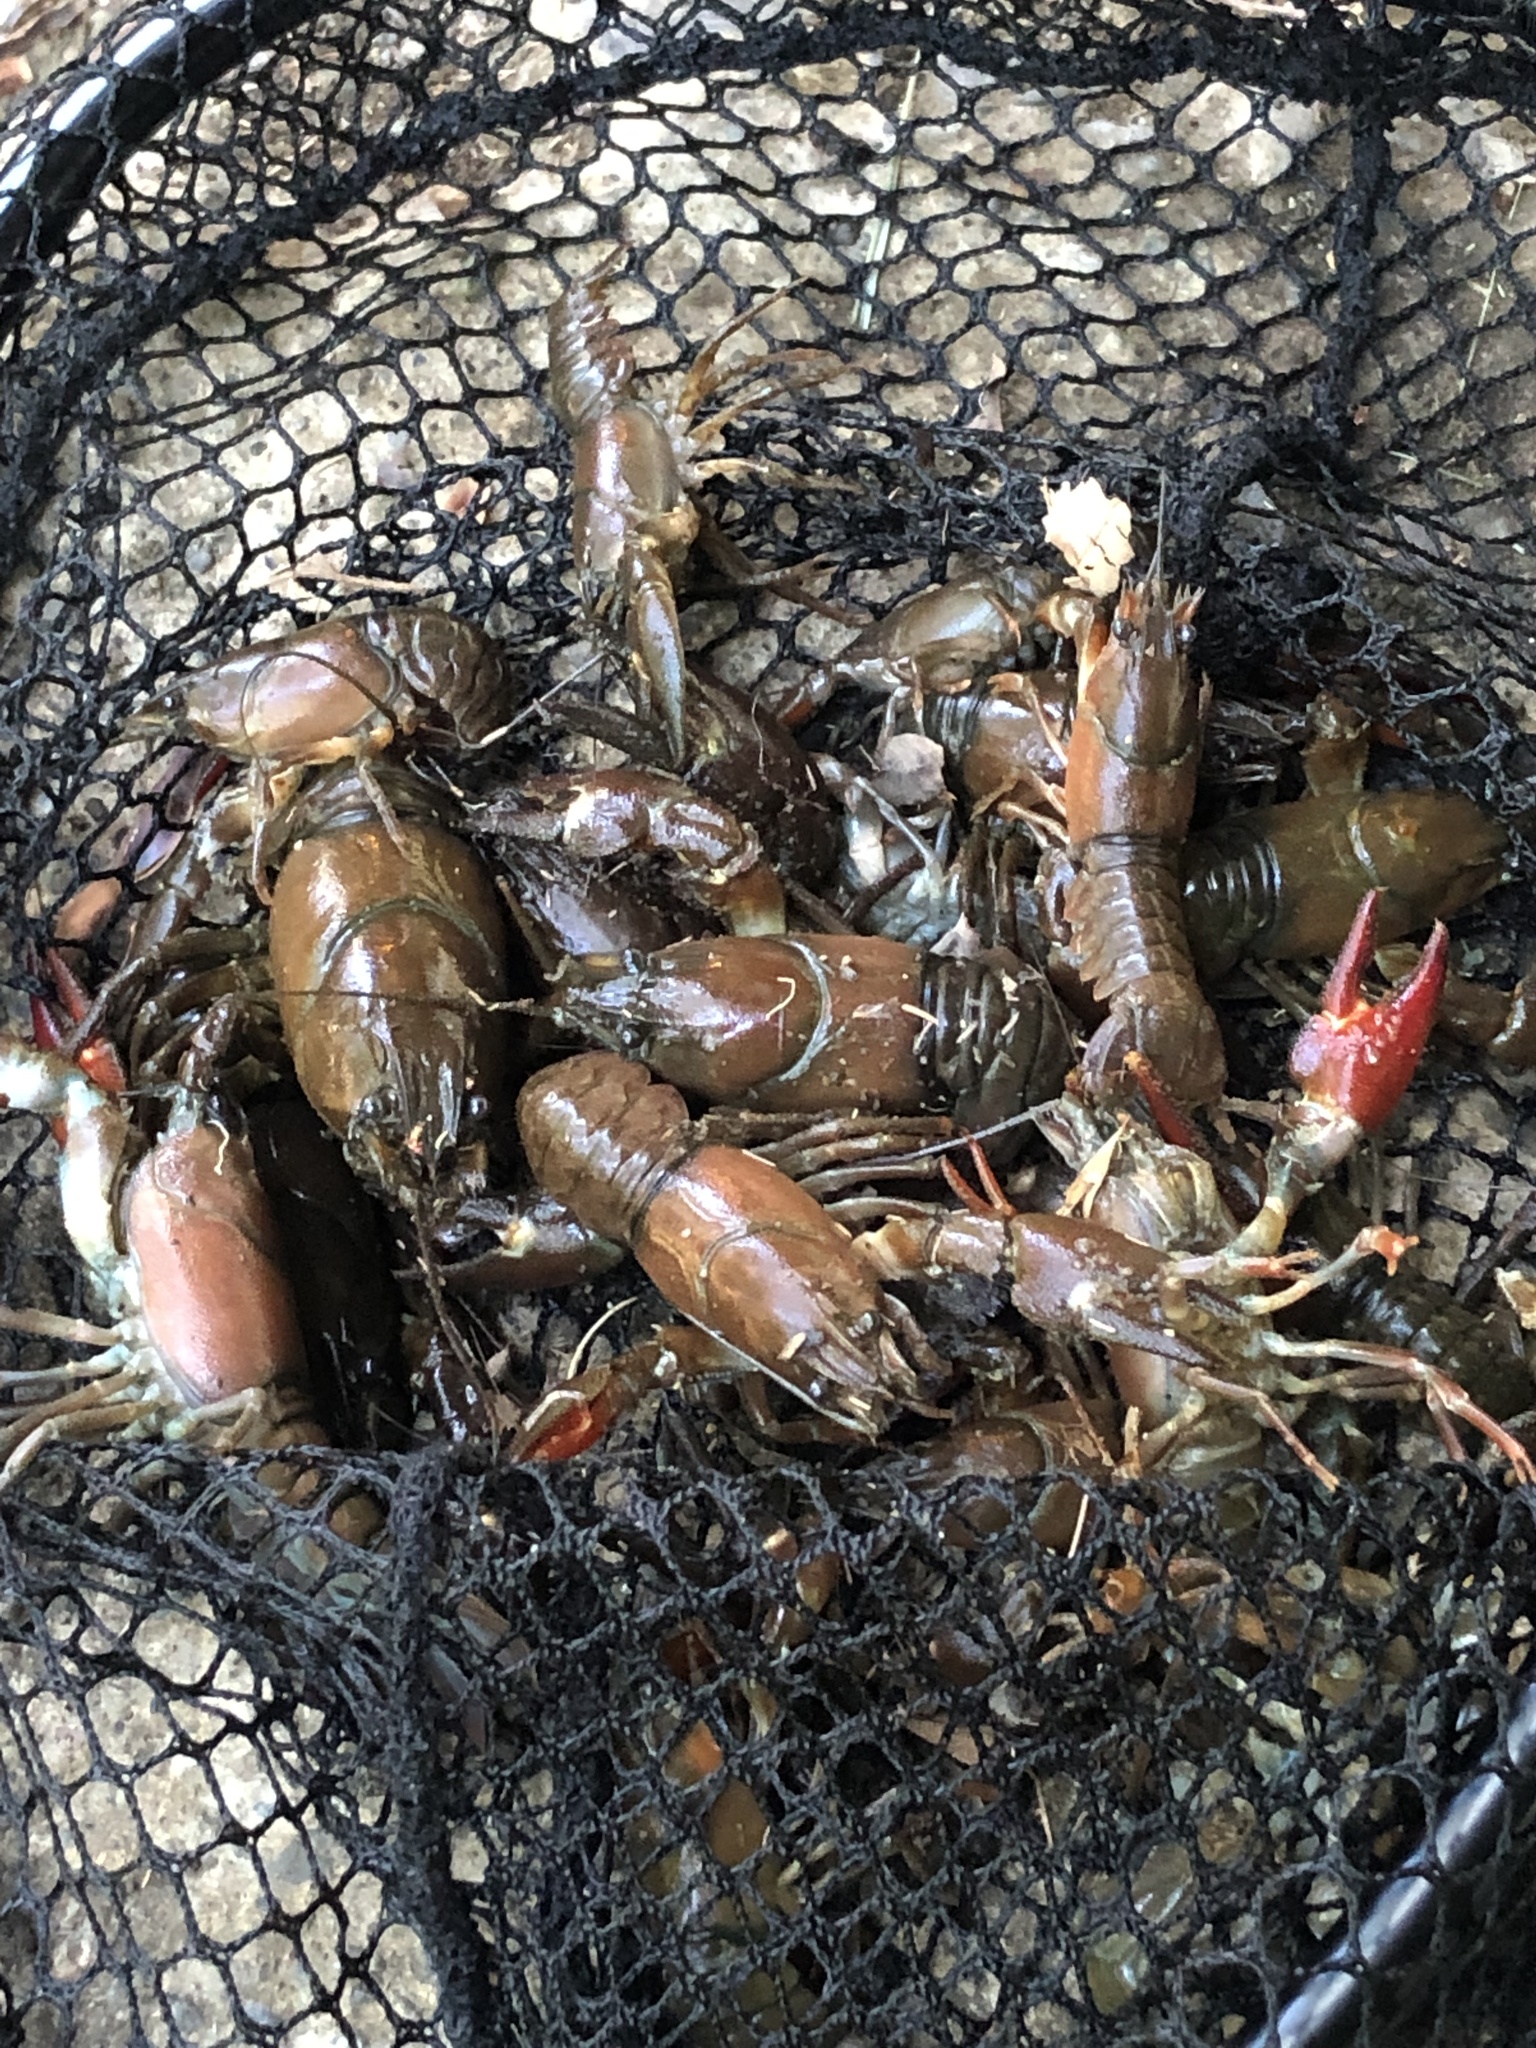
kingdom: Animalia
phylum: Arthropoda
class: Malacostraca
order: Decapoda
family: Astacidae
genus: Pacifastacus
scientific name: Pacifastacus leniusculus
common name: Signal crayfish
